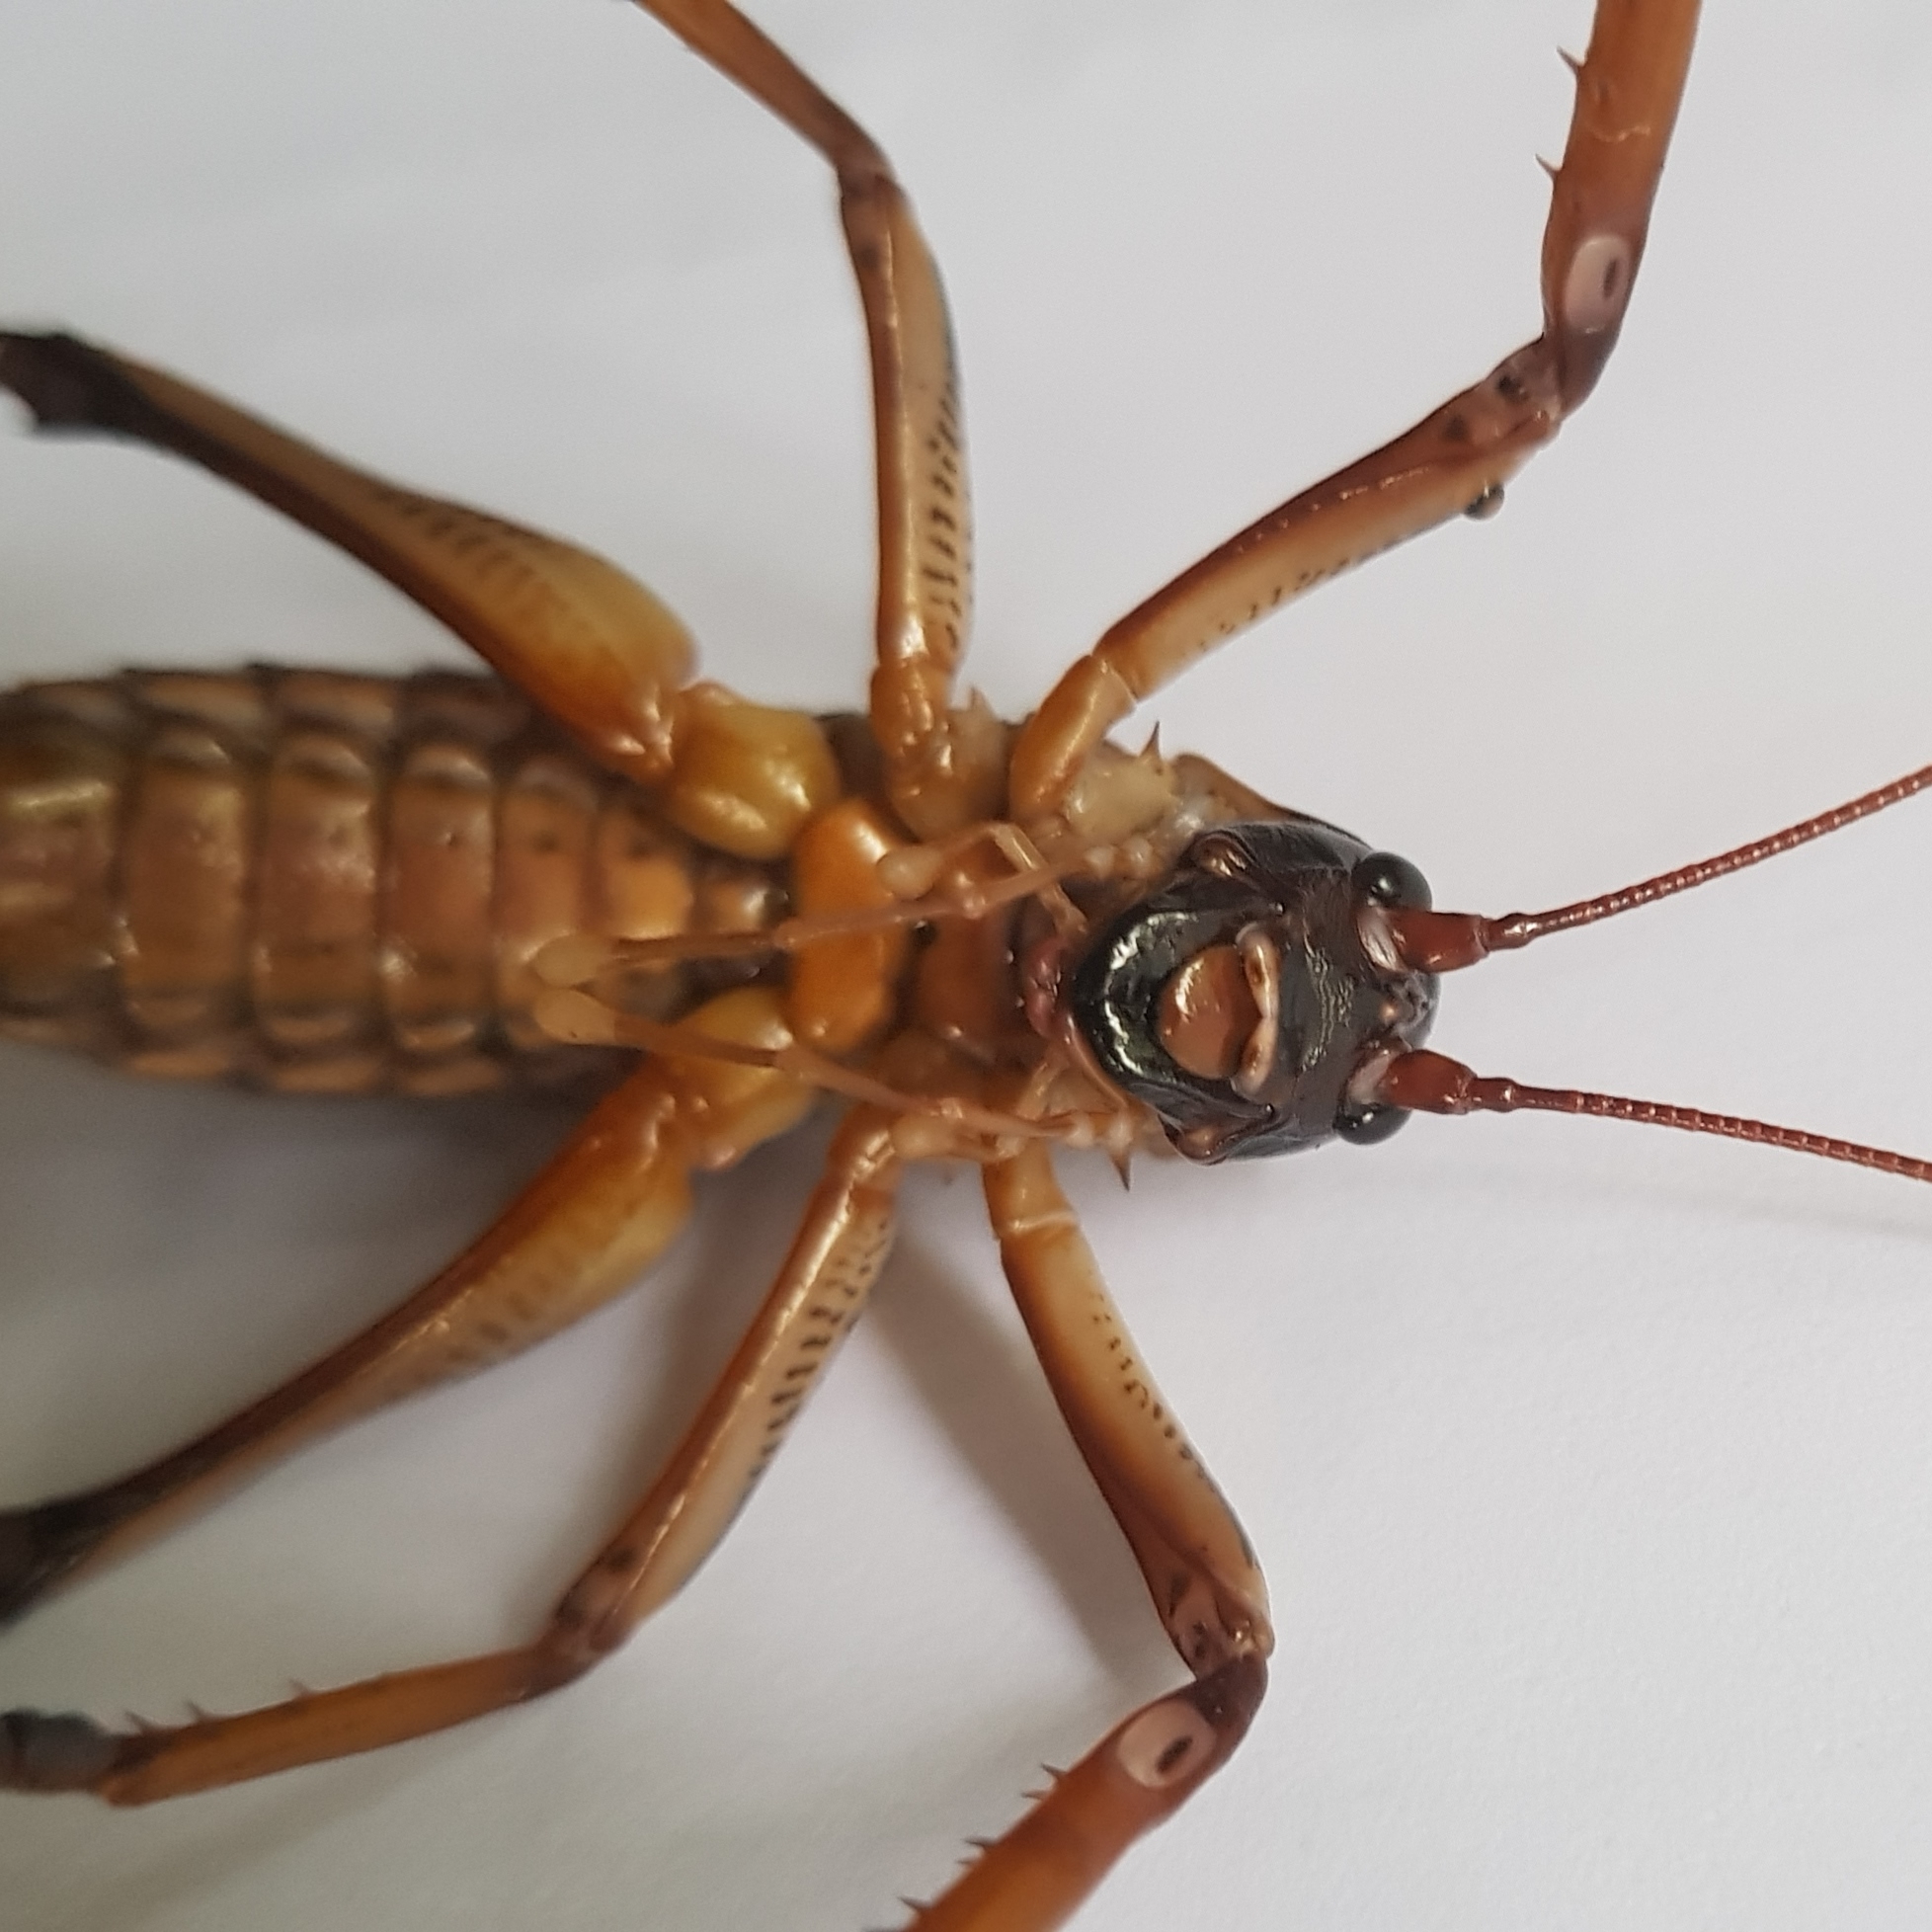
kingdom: Animalia
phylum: Arthropoda
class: Insecta
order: Orthoptera
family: Anostostomatidae
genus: Hemideina
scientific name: Hemideina thoracica
